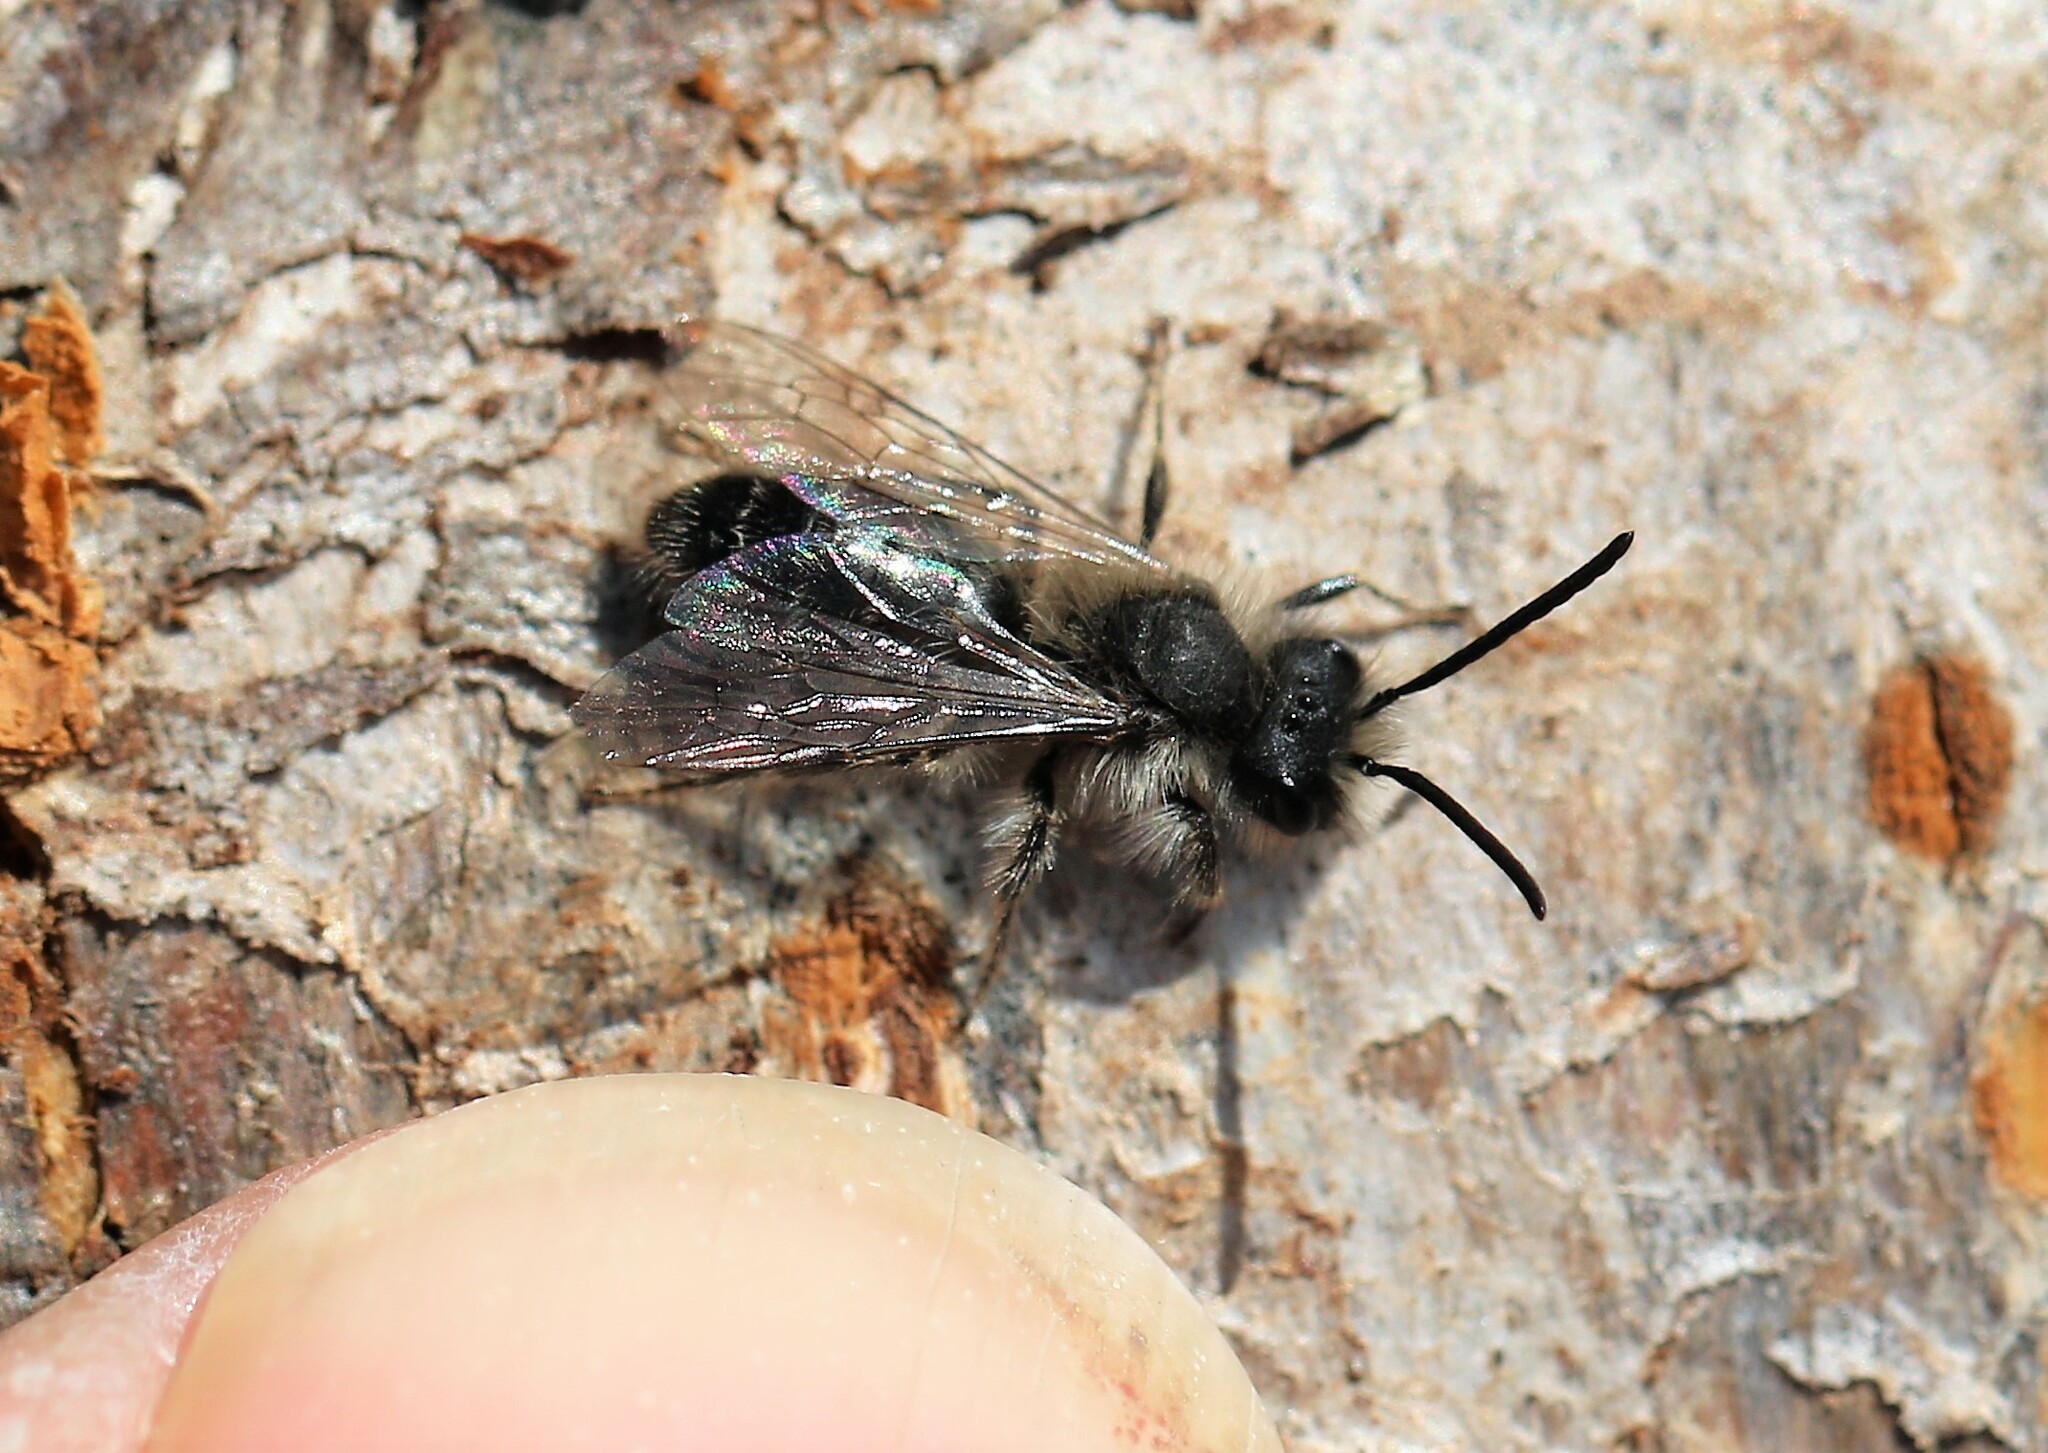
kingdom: Animalia
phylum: Arthropoda
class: Insecta
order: Hymenoptera
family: Andrenidae
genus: Andrena
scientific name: Andrena frigida
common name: Frigid mining bee
